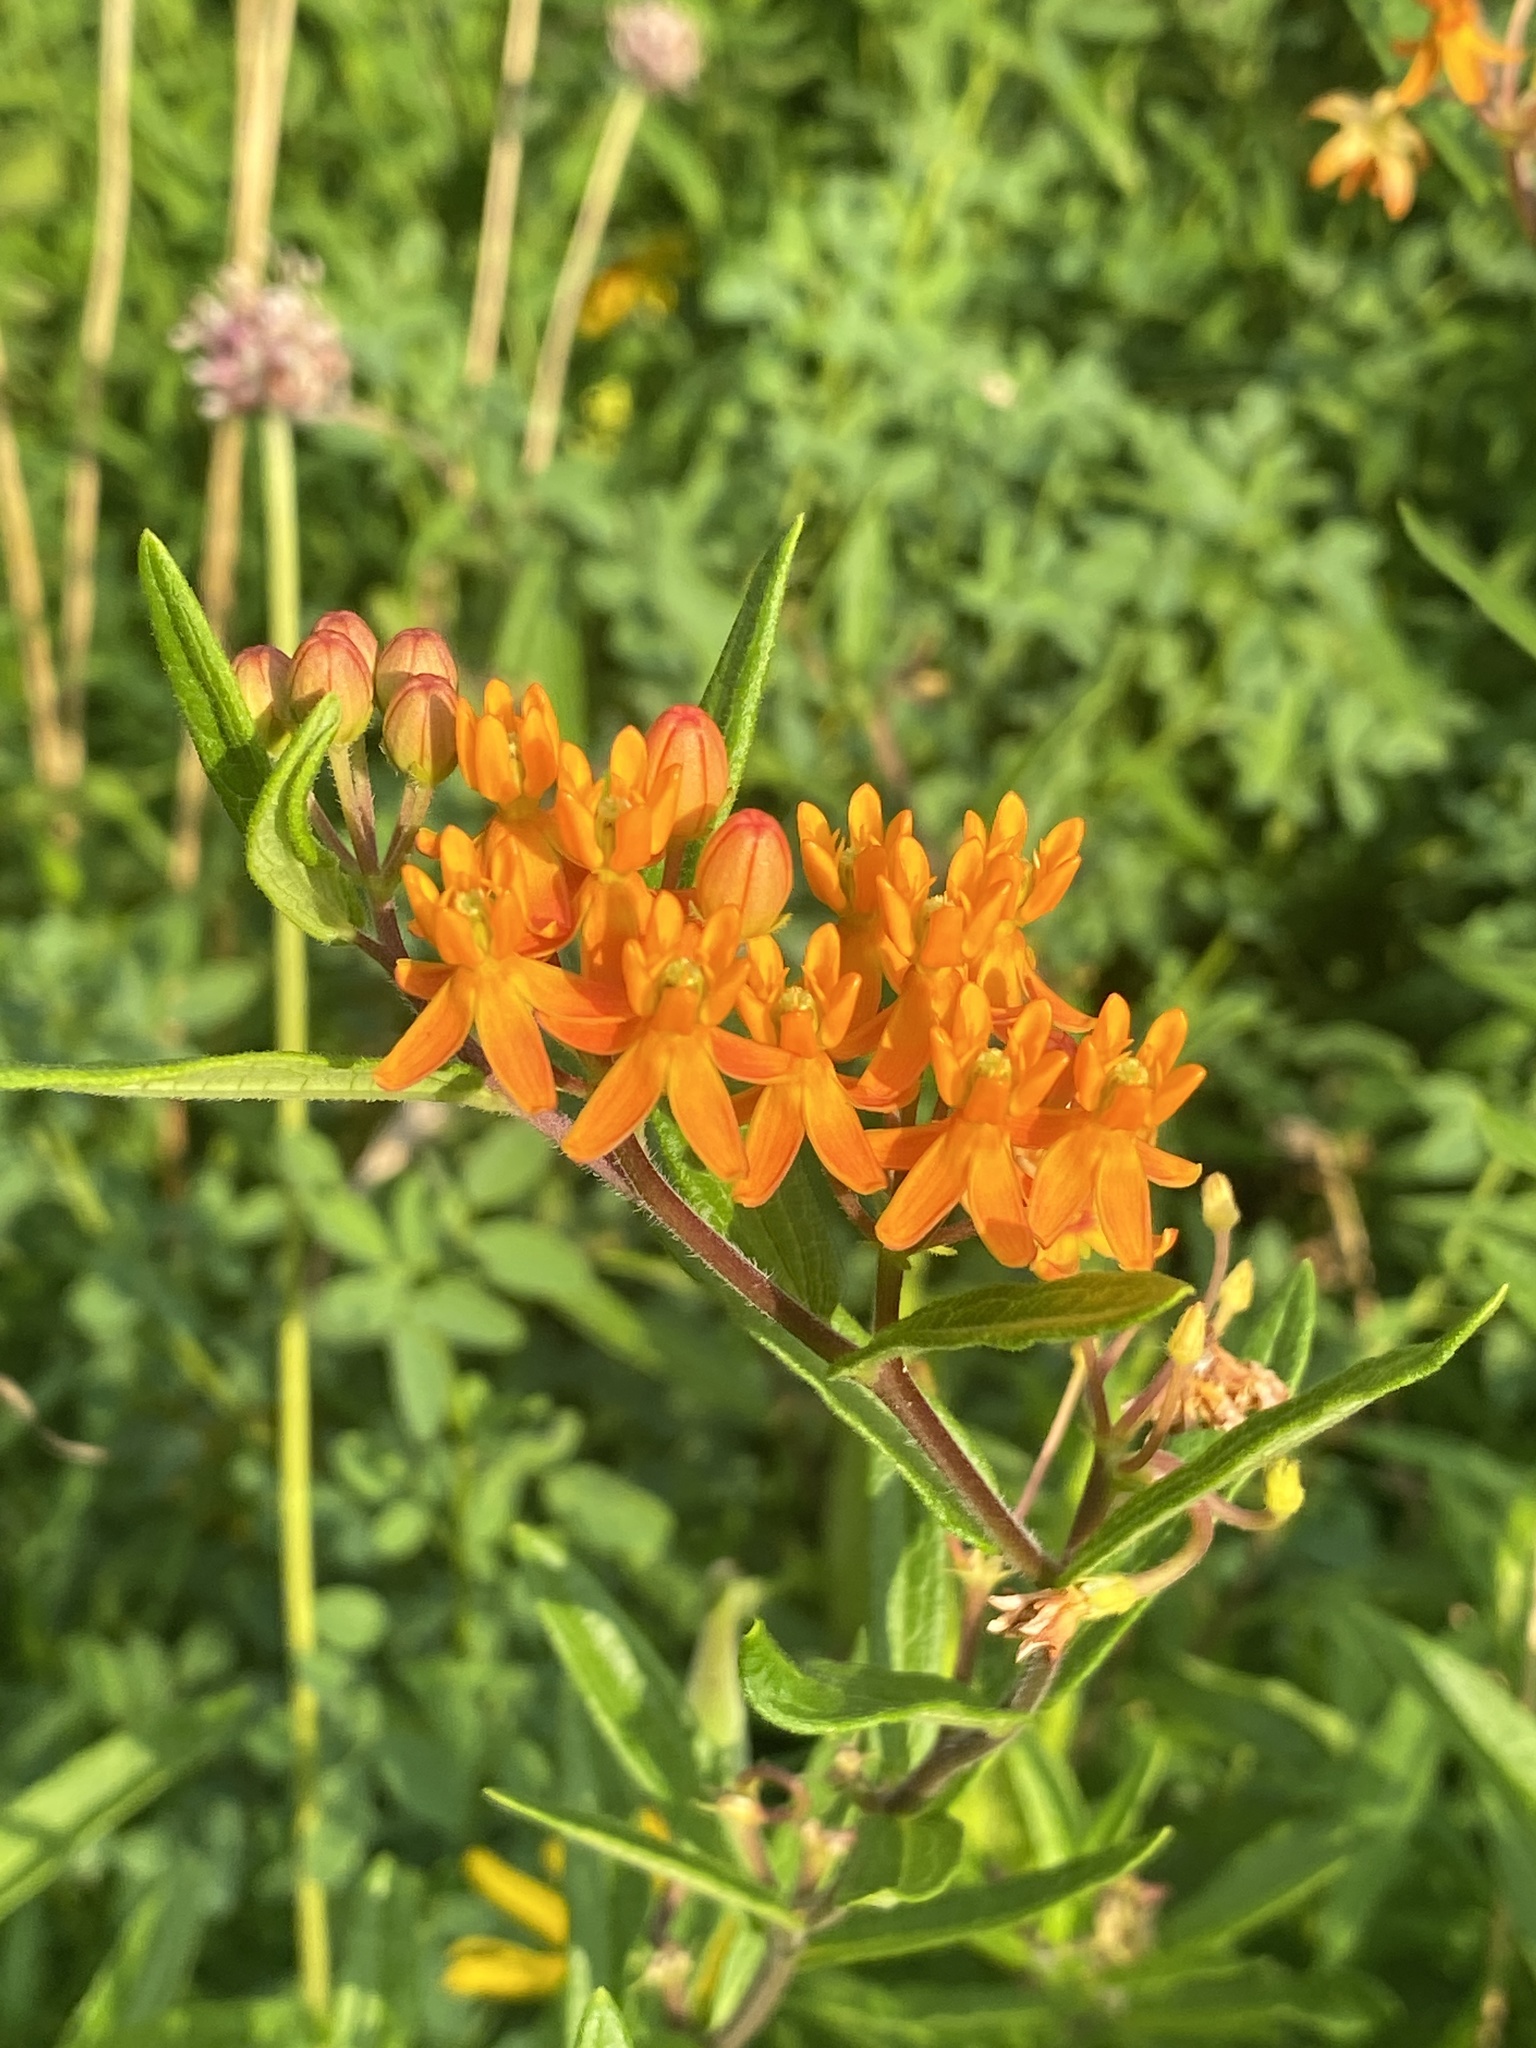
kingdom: Plantae
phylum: Tracheophyta
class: Magnoliopsida
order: Gentianales
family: Apocynaceae
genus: Asclepias
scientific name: Asclepias tuberosa
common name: Butterfly milkweed
